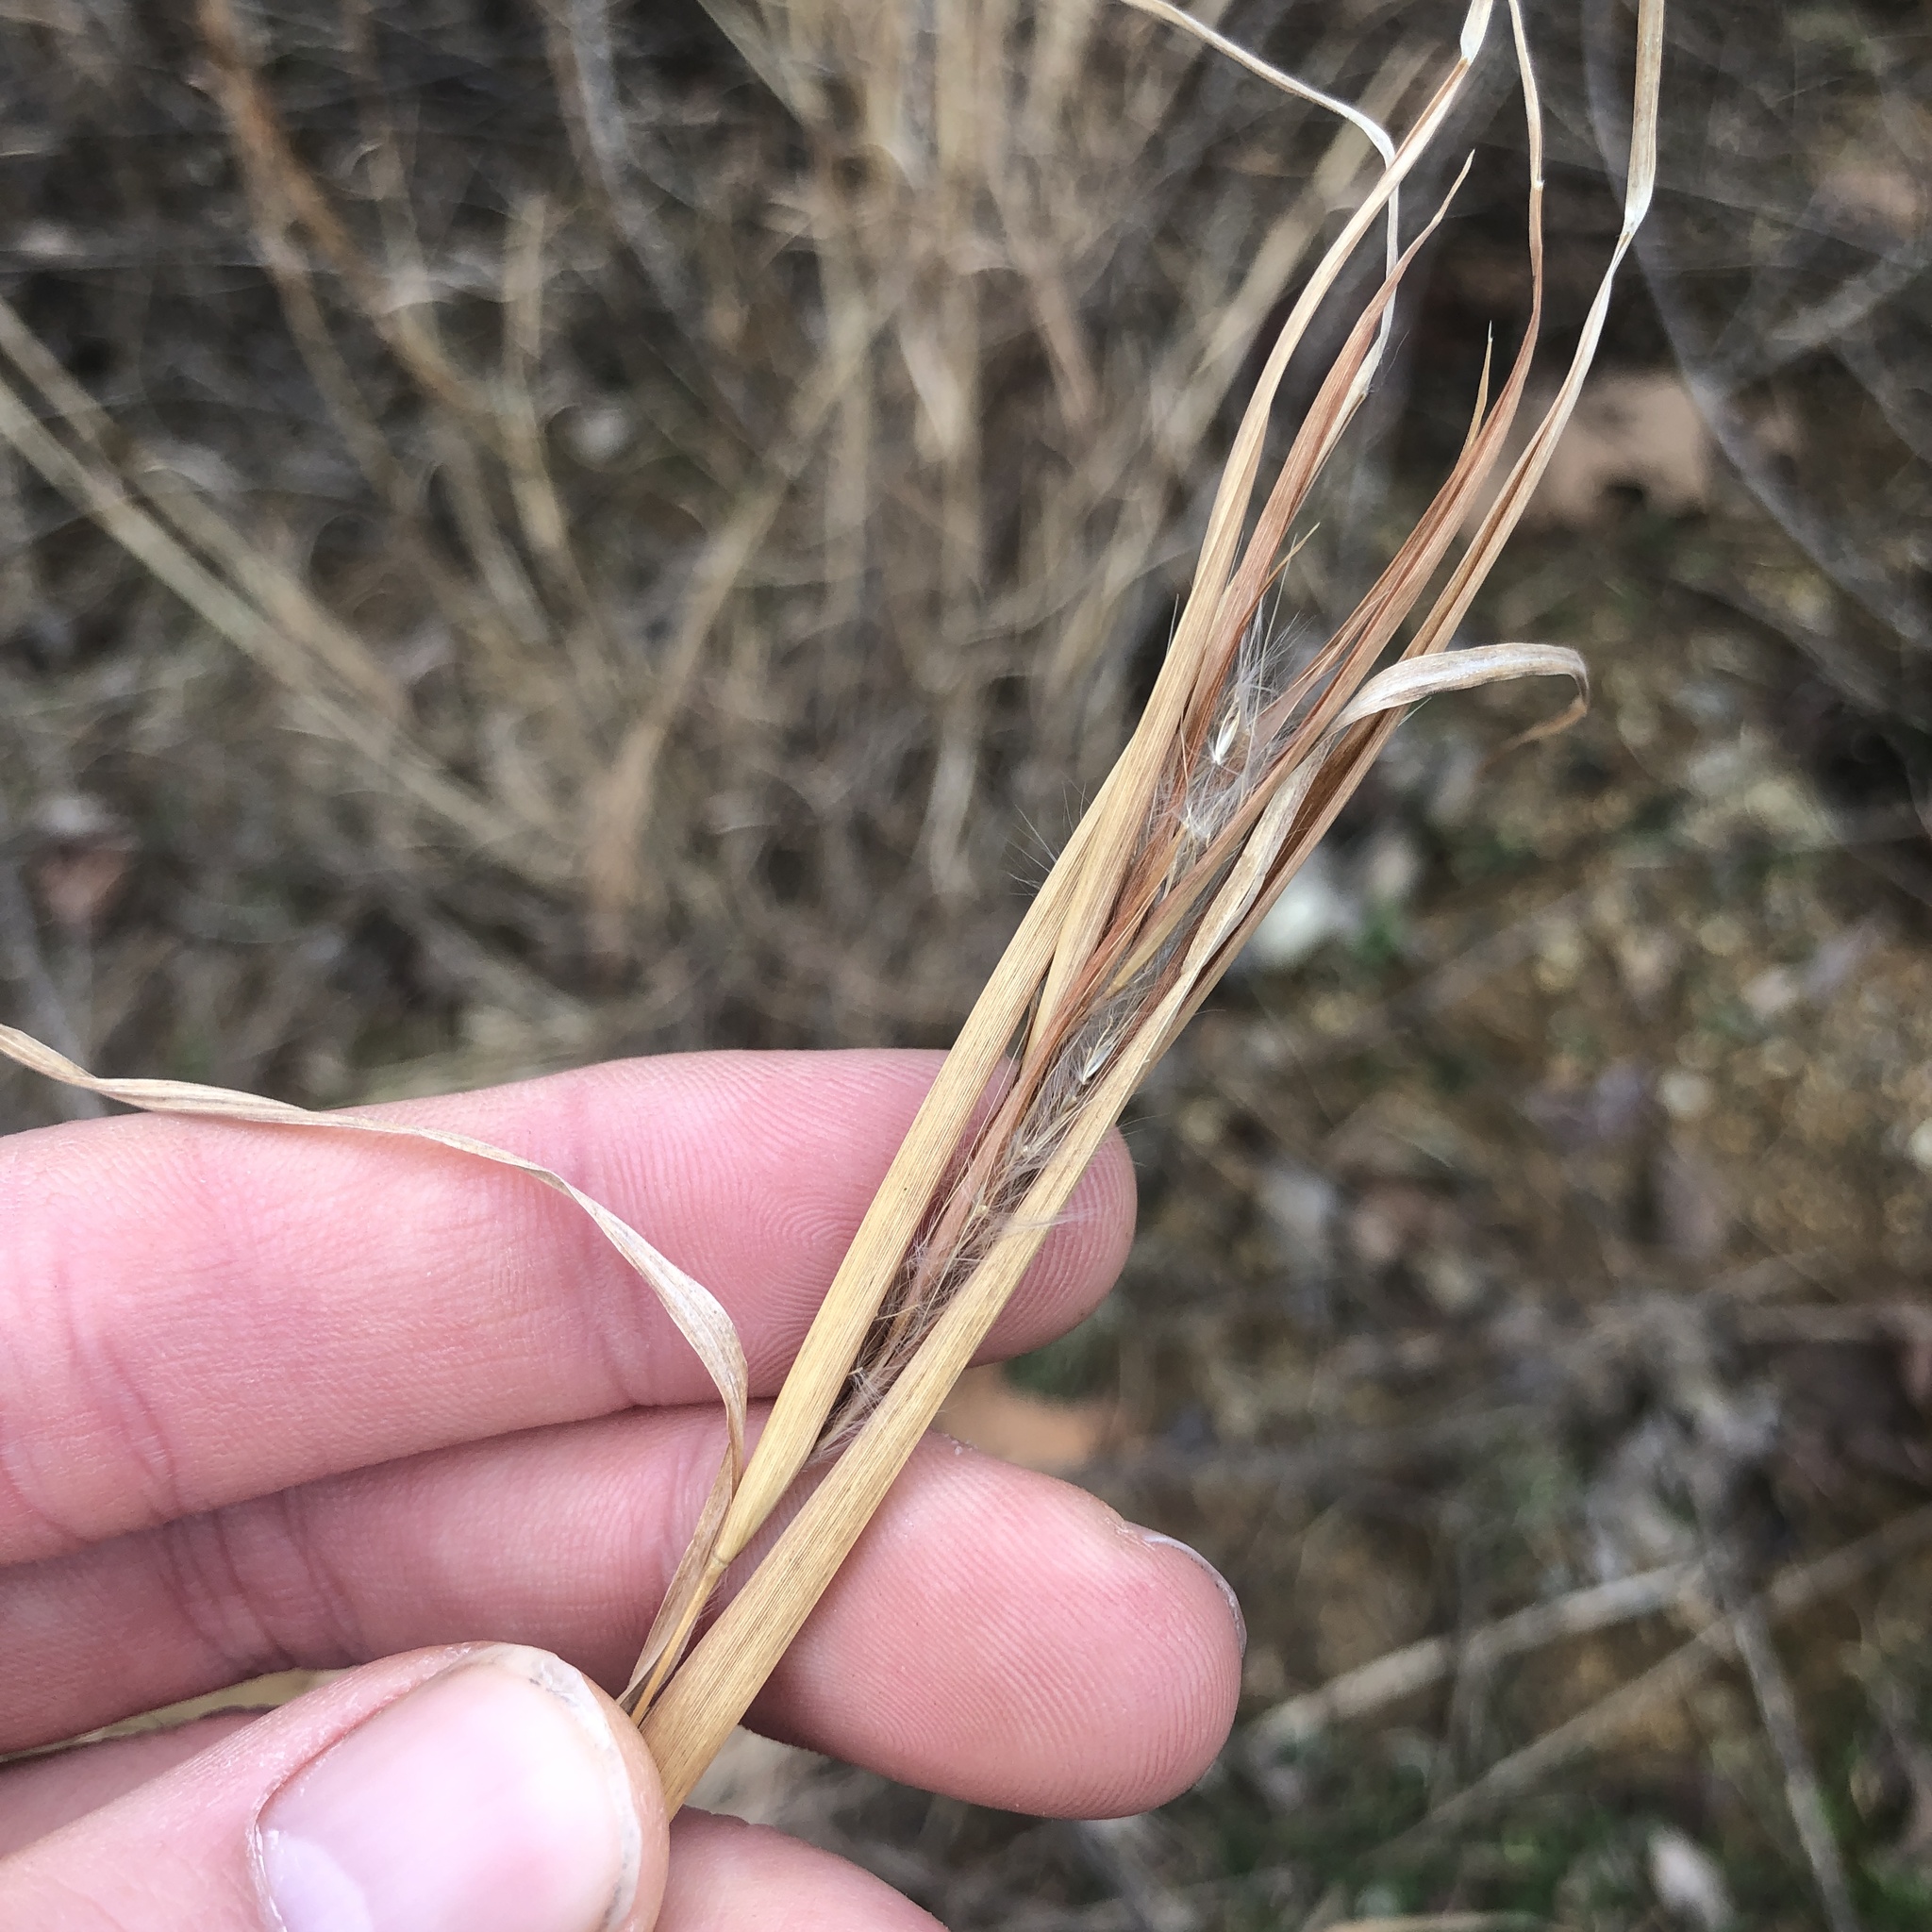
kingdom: Plantae
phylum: Tracheophyta
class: Liliopsida
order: Poales
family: Poaceae
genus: Andropogon
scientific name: Andropogon virginicus
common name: Broomsedge bluestem
